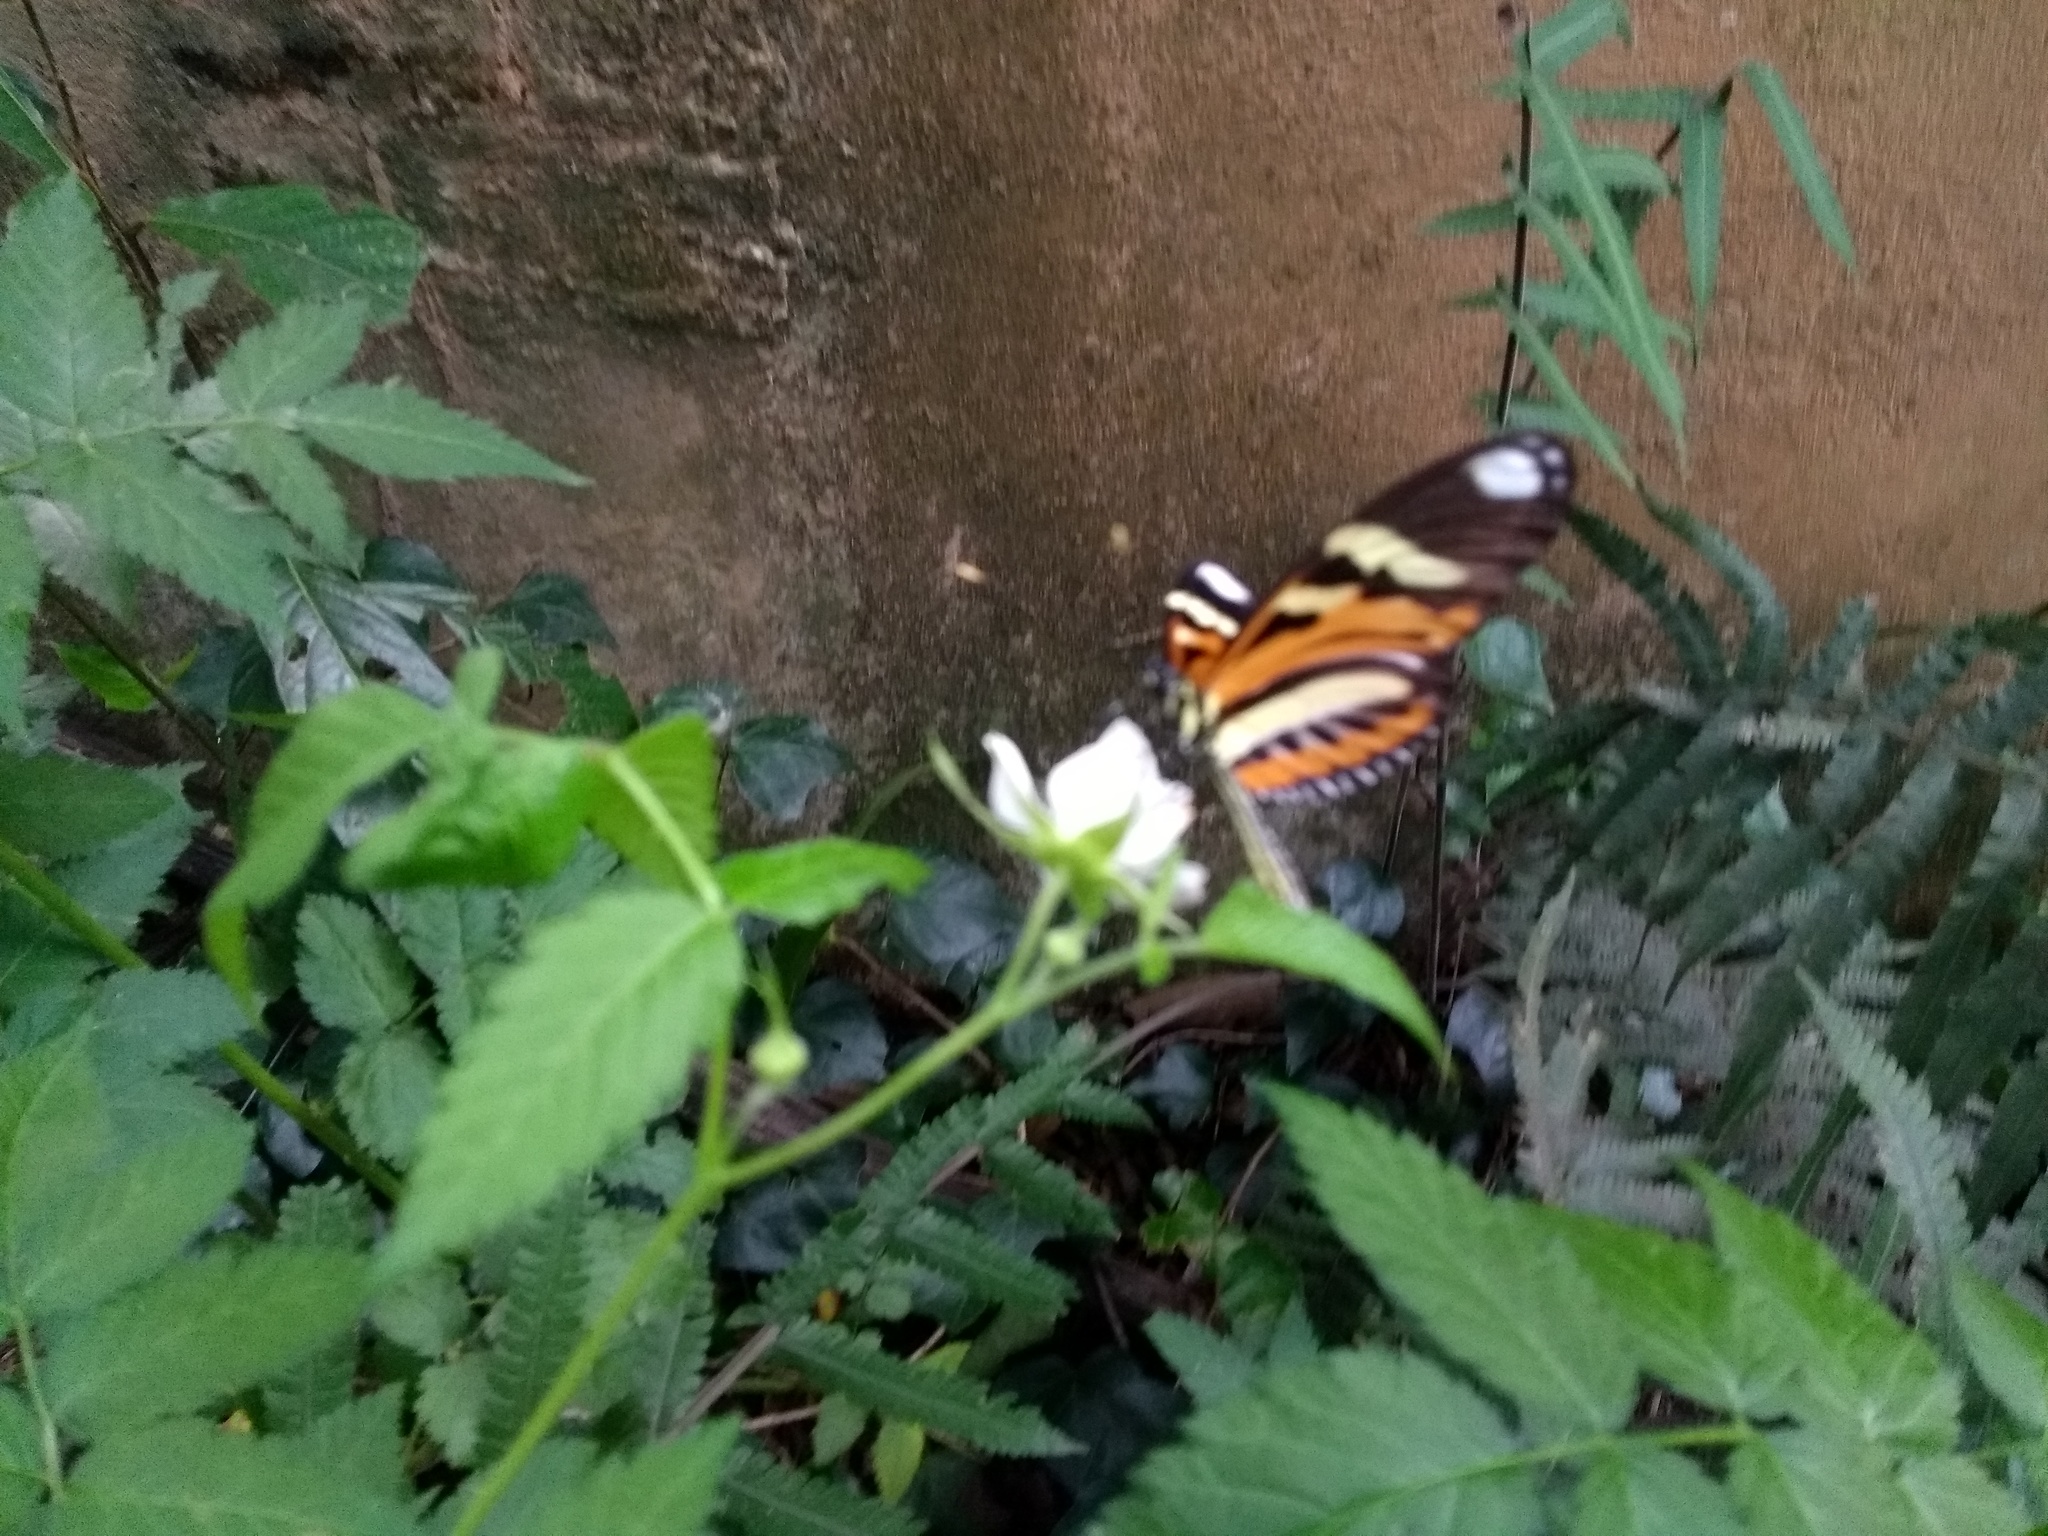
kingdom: Animalia
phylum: Arthropoda
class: Insecta
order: Lepidoptera
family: Nymphalidae
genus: Heliconius
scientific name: Heliconius ethilla
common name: Ethilia longwing
